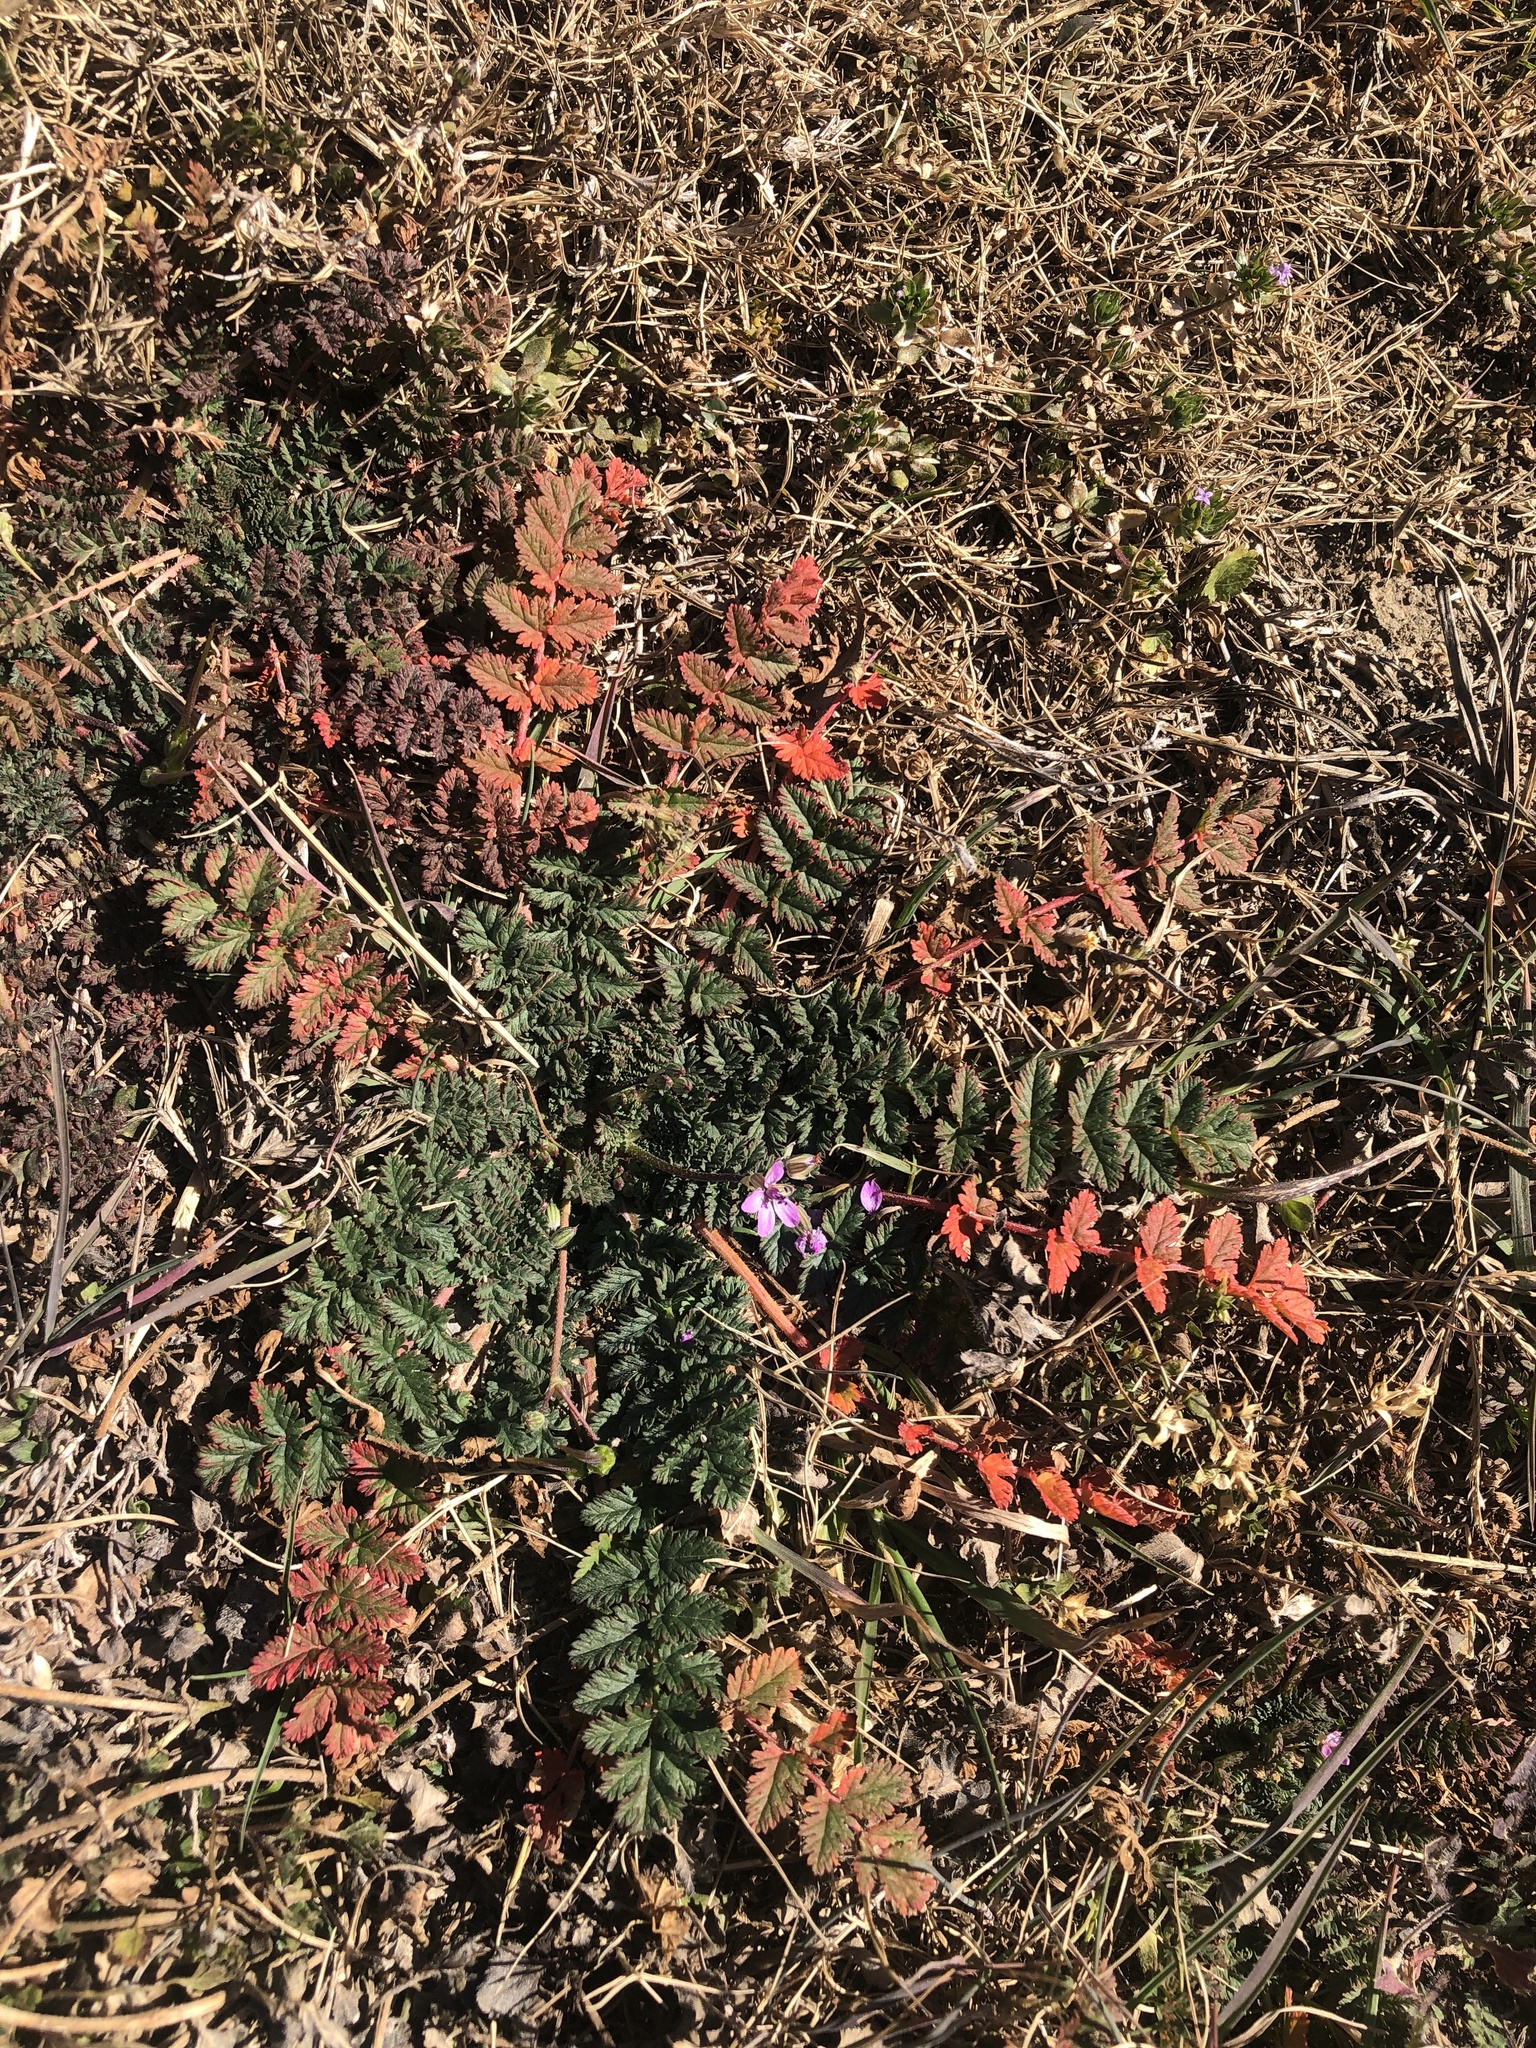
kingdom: Plantae
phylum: Tracheophyta
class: Magnoliopsida
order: Geraniales
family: Geraniaceae
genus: Erodium
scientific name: Erodium cicutarium
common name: Common stork's-bill
